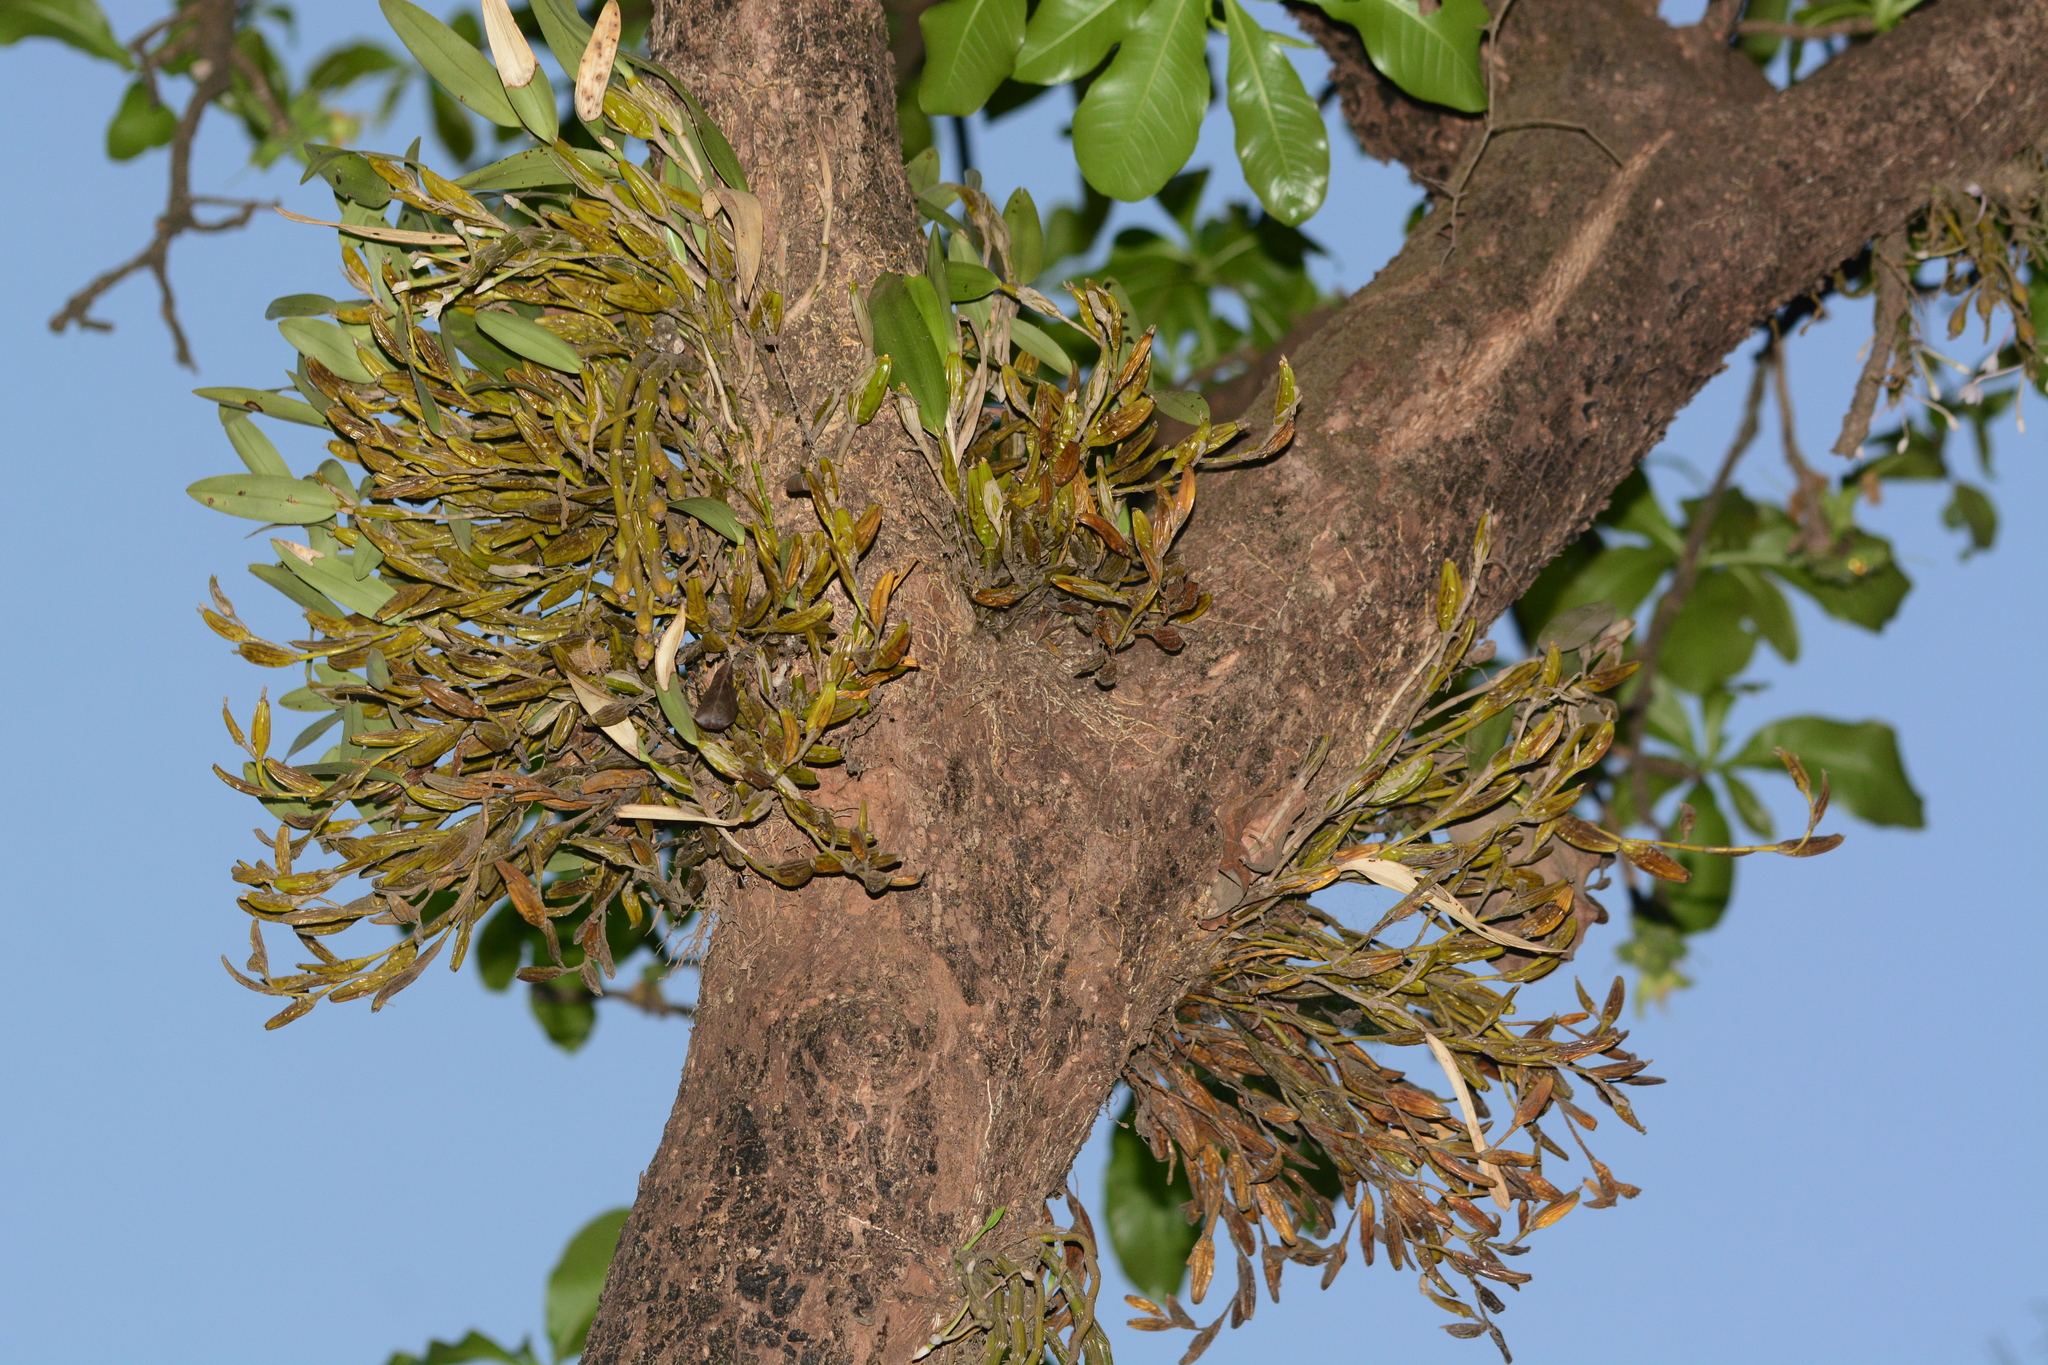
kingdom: Plantae
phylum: Tracheophyta
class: Liliopsida
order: Asparagales
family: Orchidaceae
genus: Dendrobium
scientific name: Dendrobium nodosum
